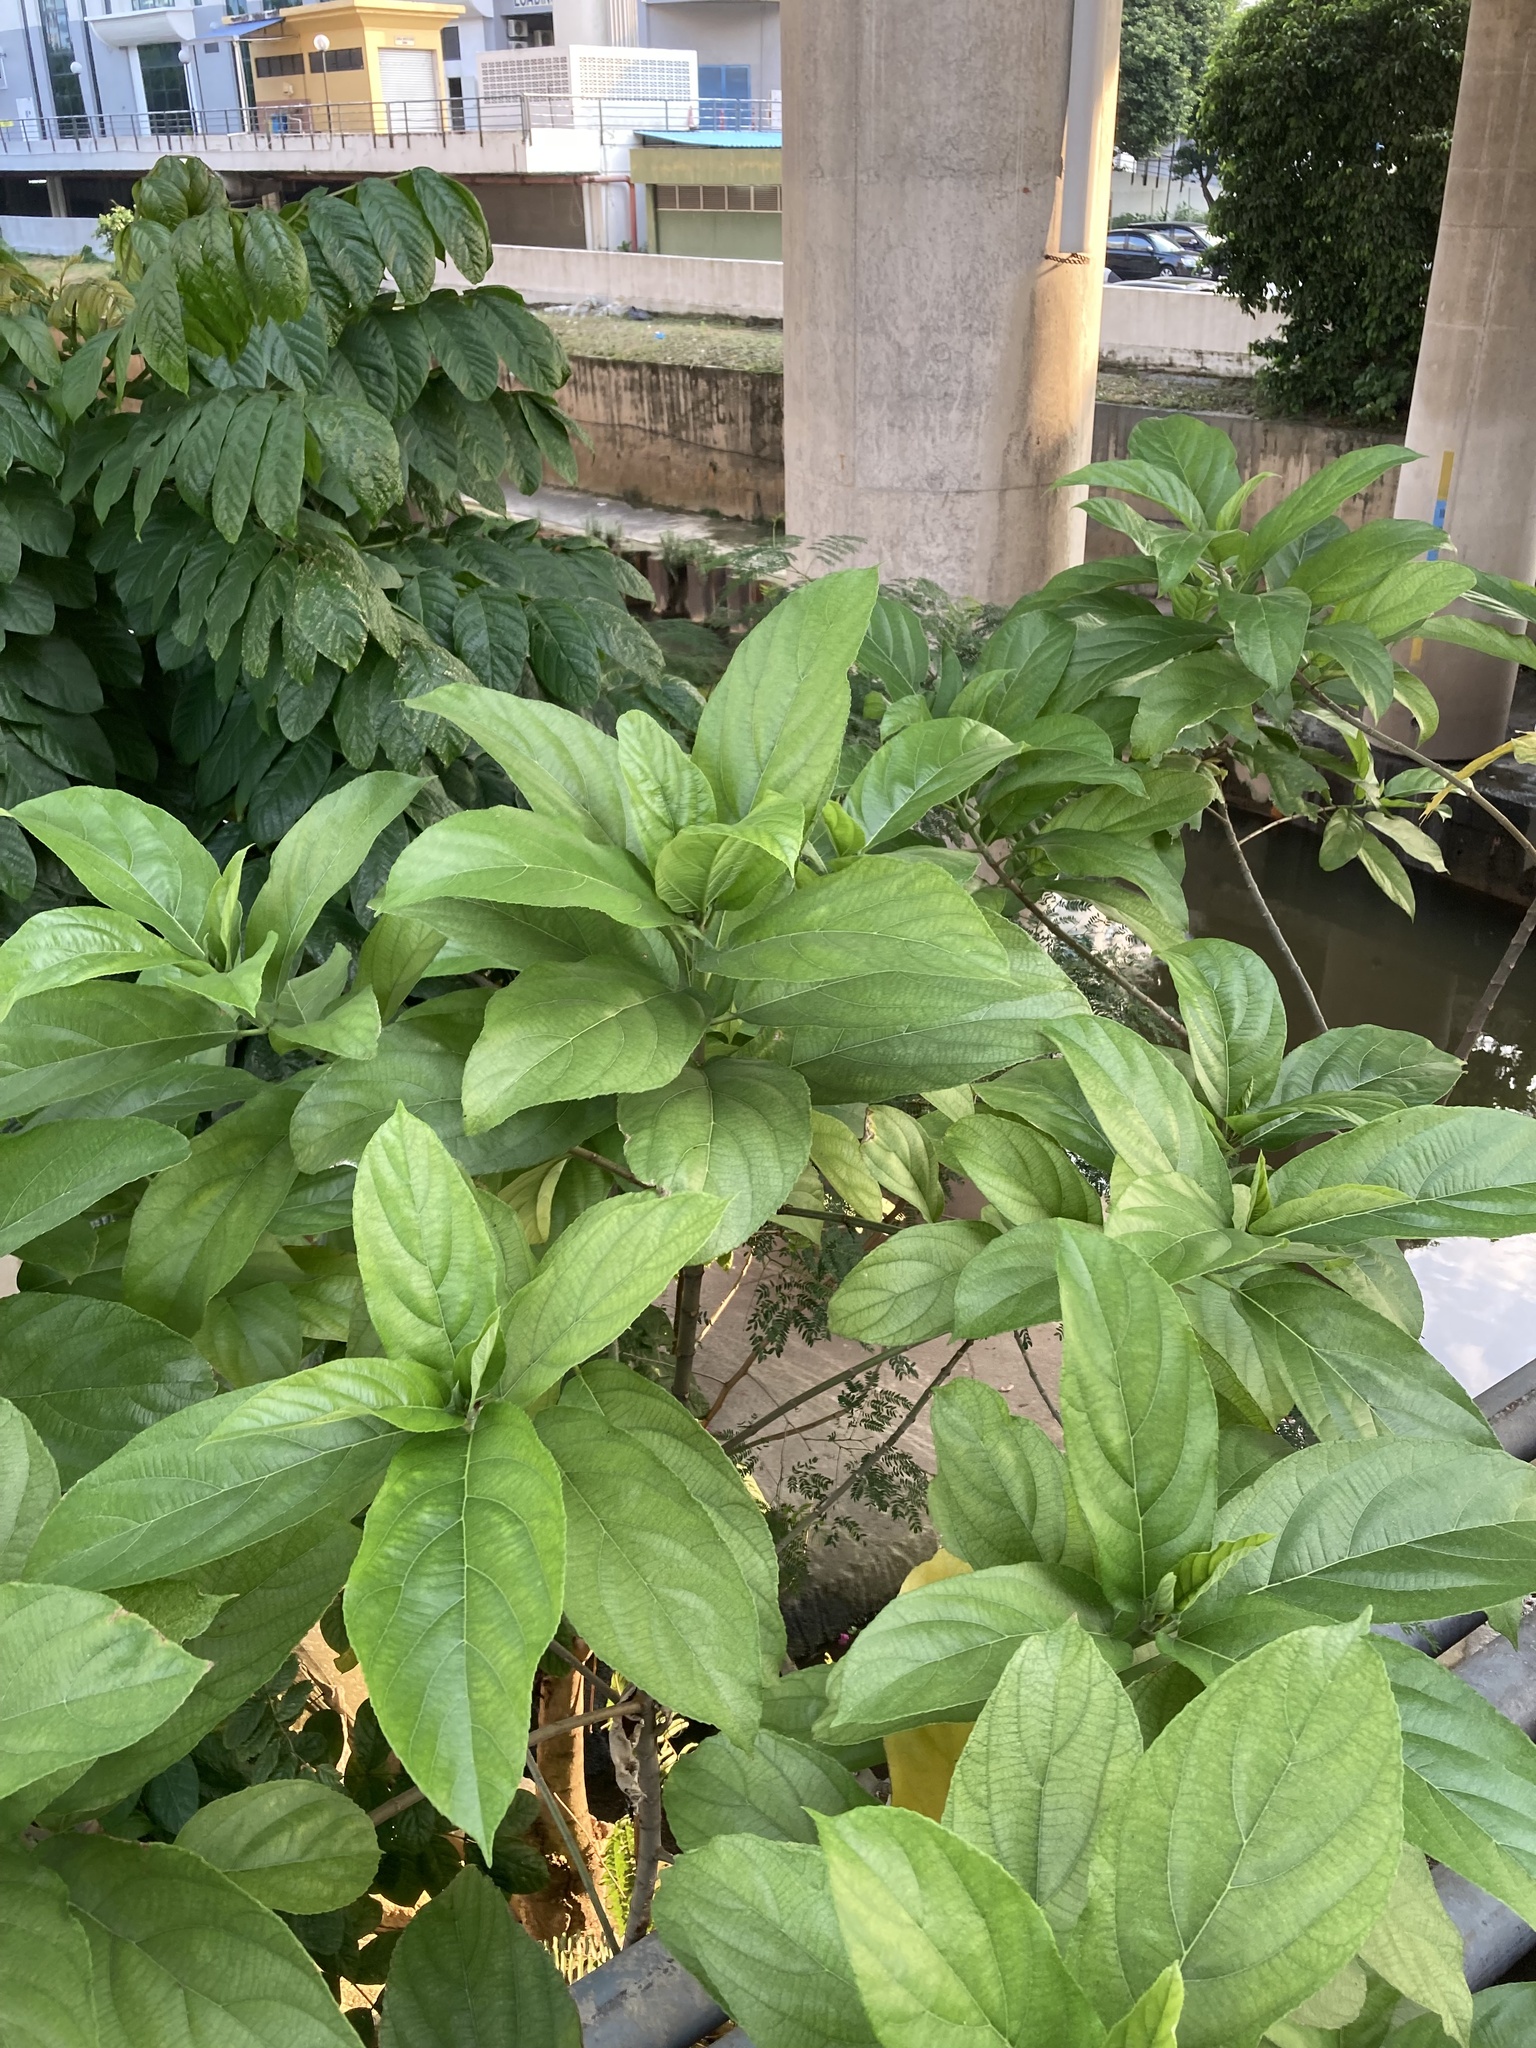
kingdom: Plantae
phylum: Tracheophyta
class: Magnoliopsida
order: Rosales
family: Moraceae
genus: Ficus
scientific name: Ficus hispida
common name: Hairy fig
